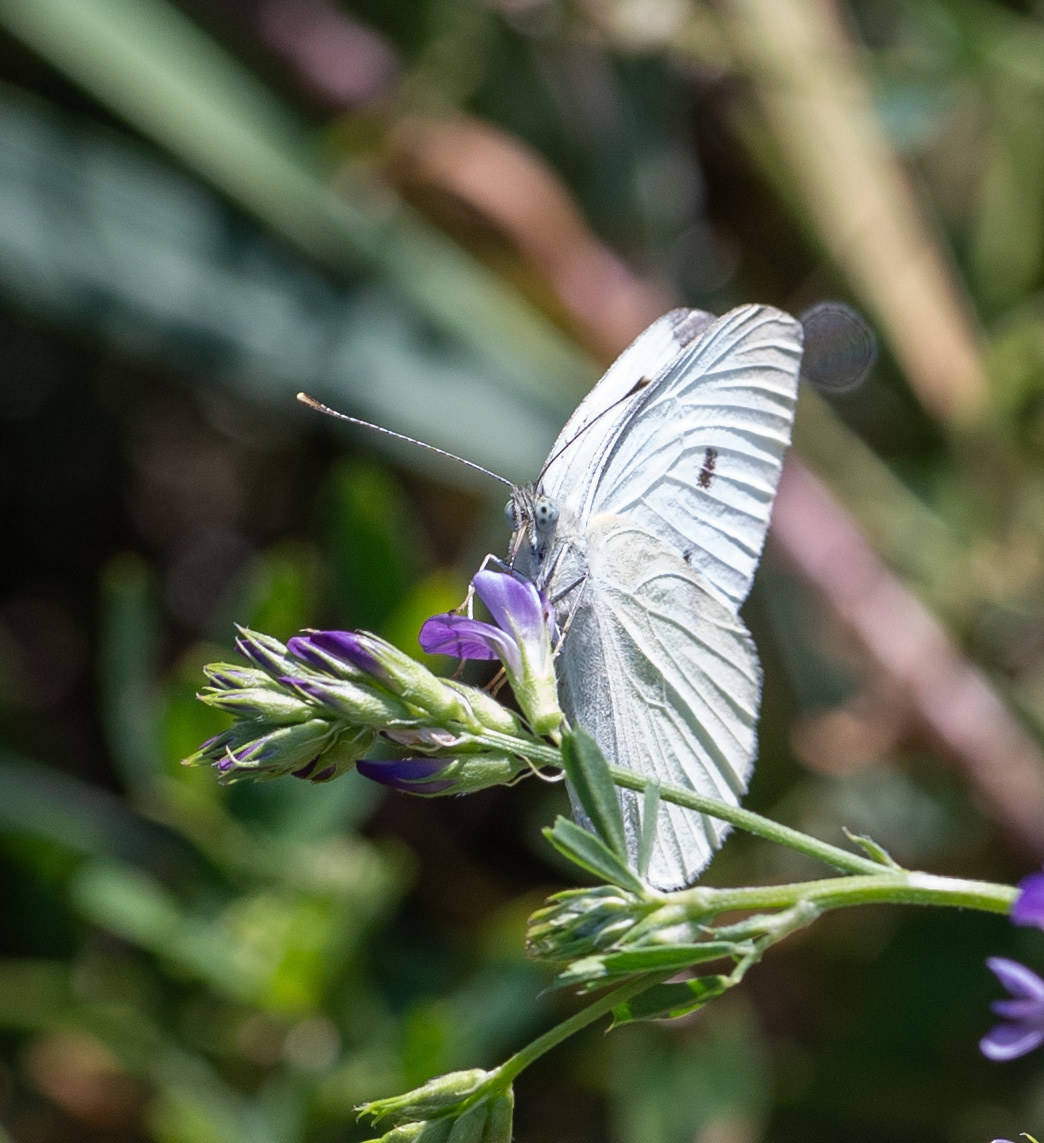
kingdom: Animalia
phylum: Arthropoda
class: Insecta
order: Lepidoptera
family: Pieridae
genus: Pieris
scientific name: Pieris rapae
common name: Small white
